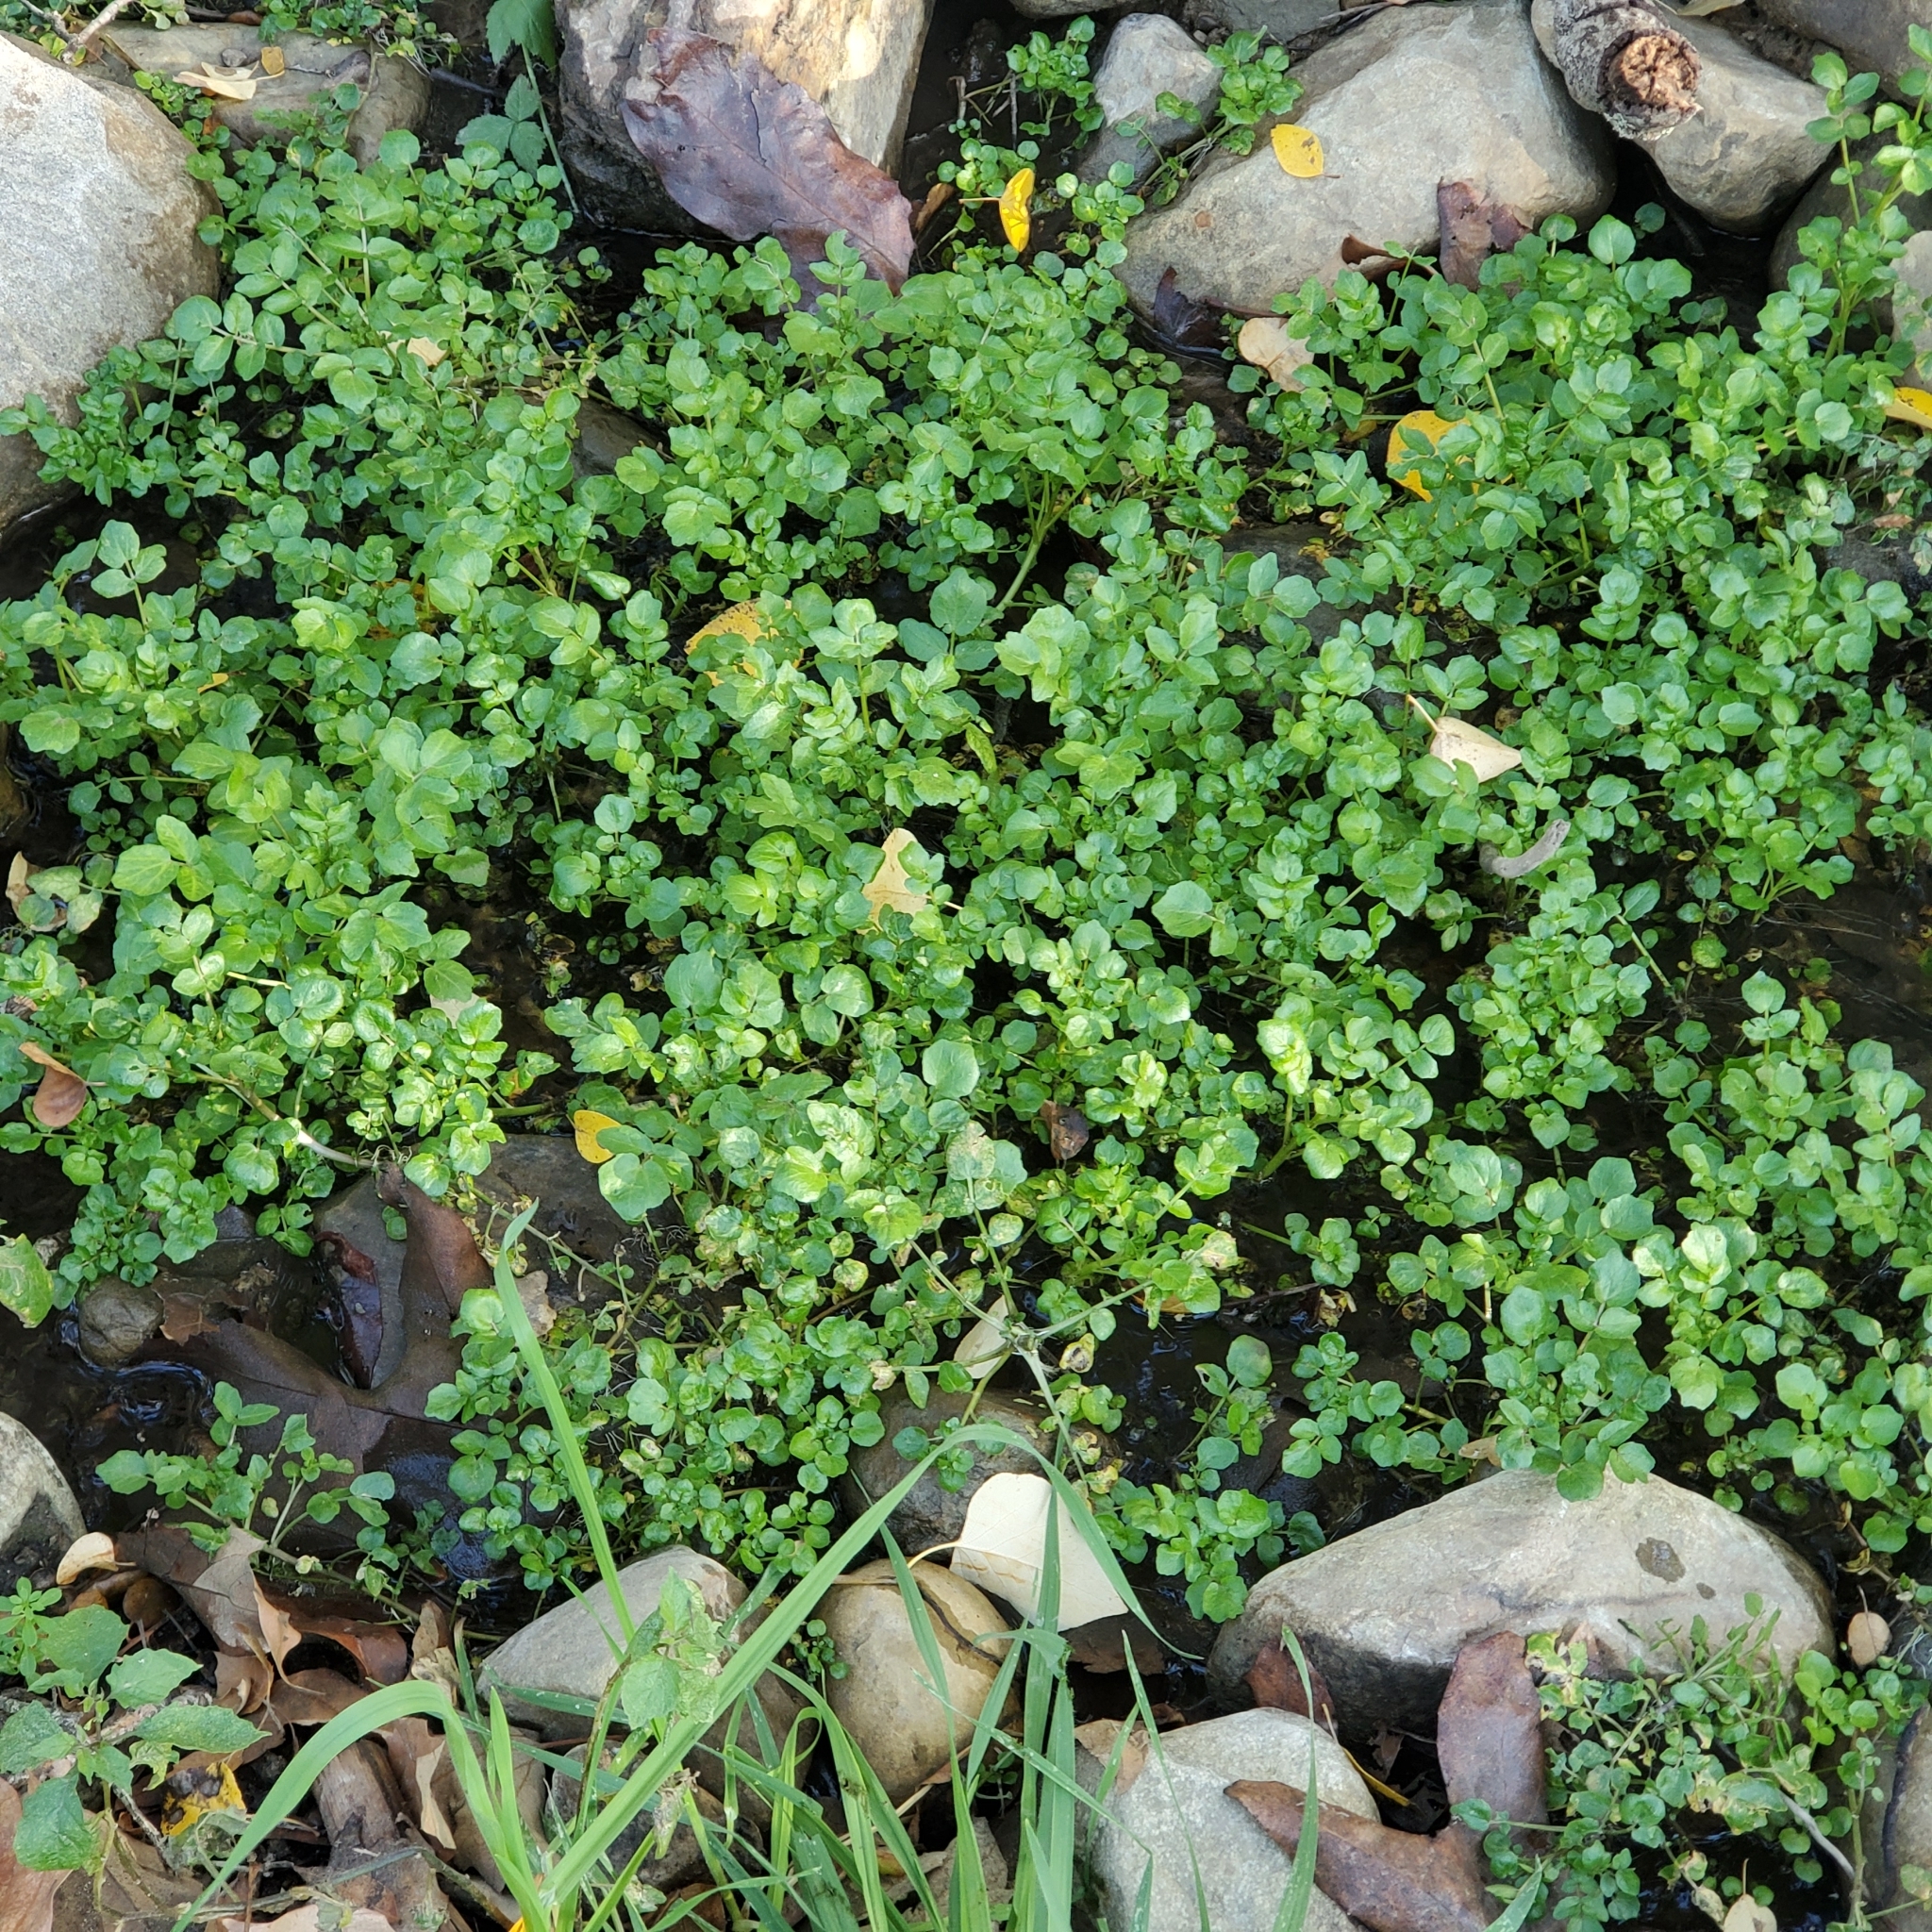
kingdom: Plantae
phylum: Tracheophyta
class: Magnoliopsida
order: Brassicales
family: Brassicaceae
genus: Nasturtium
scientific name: Nasturtium officinale
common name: Watercress
